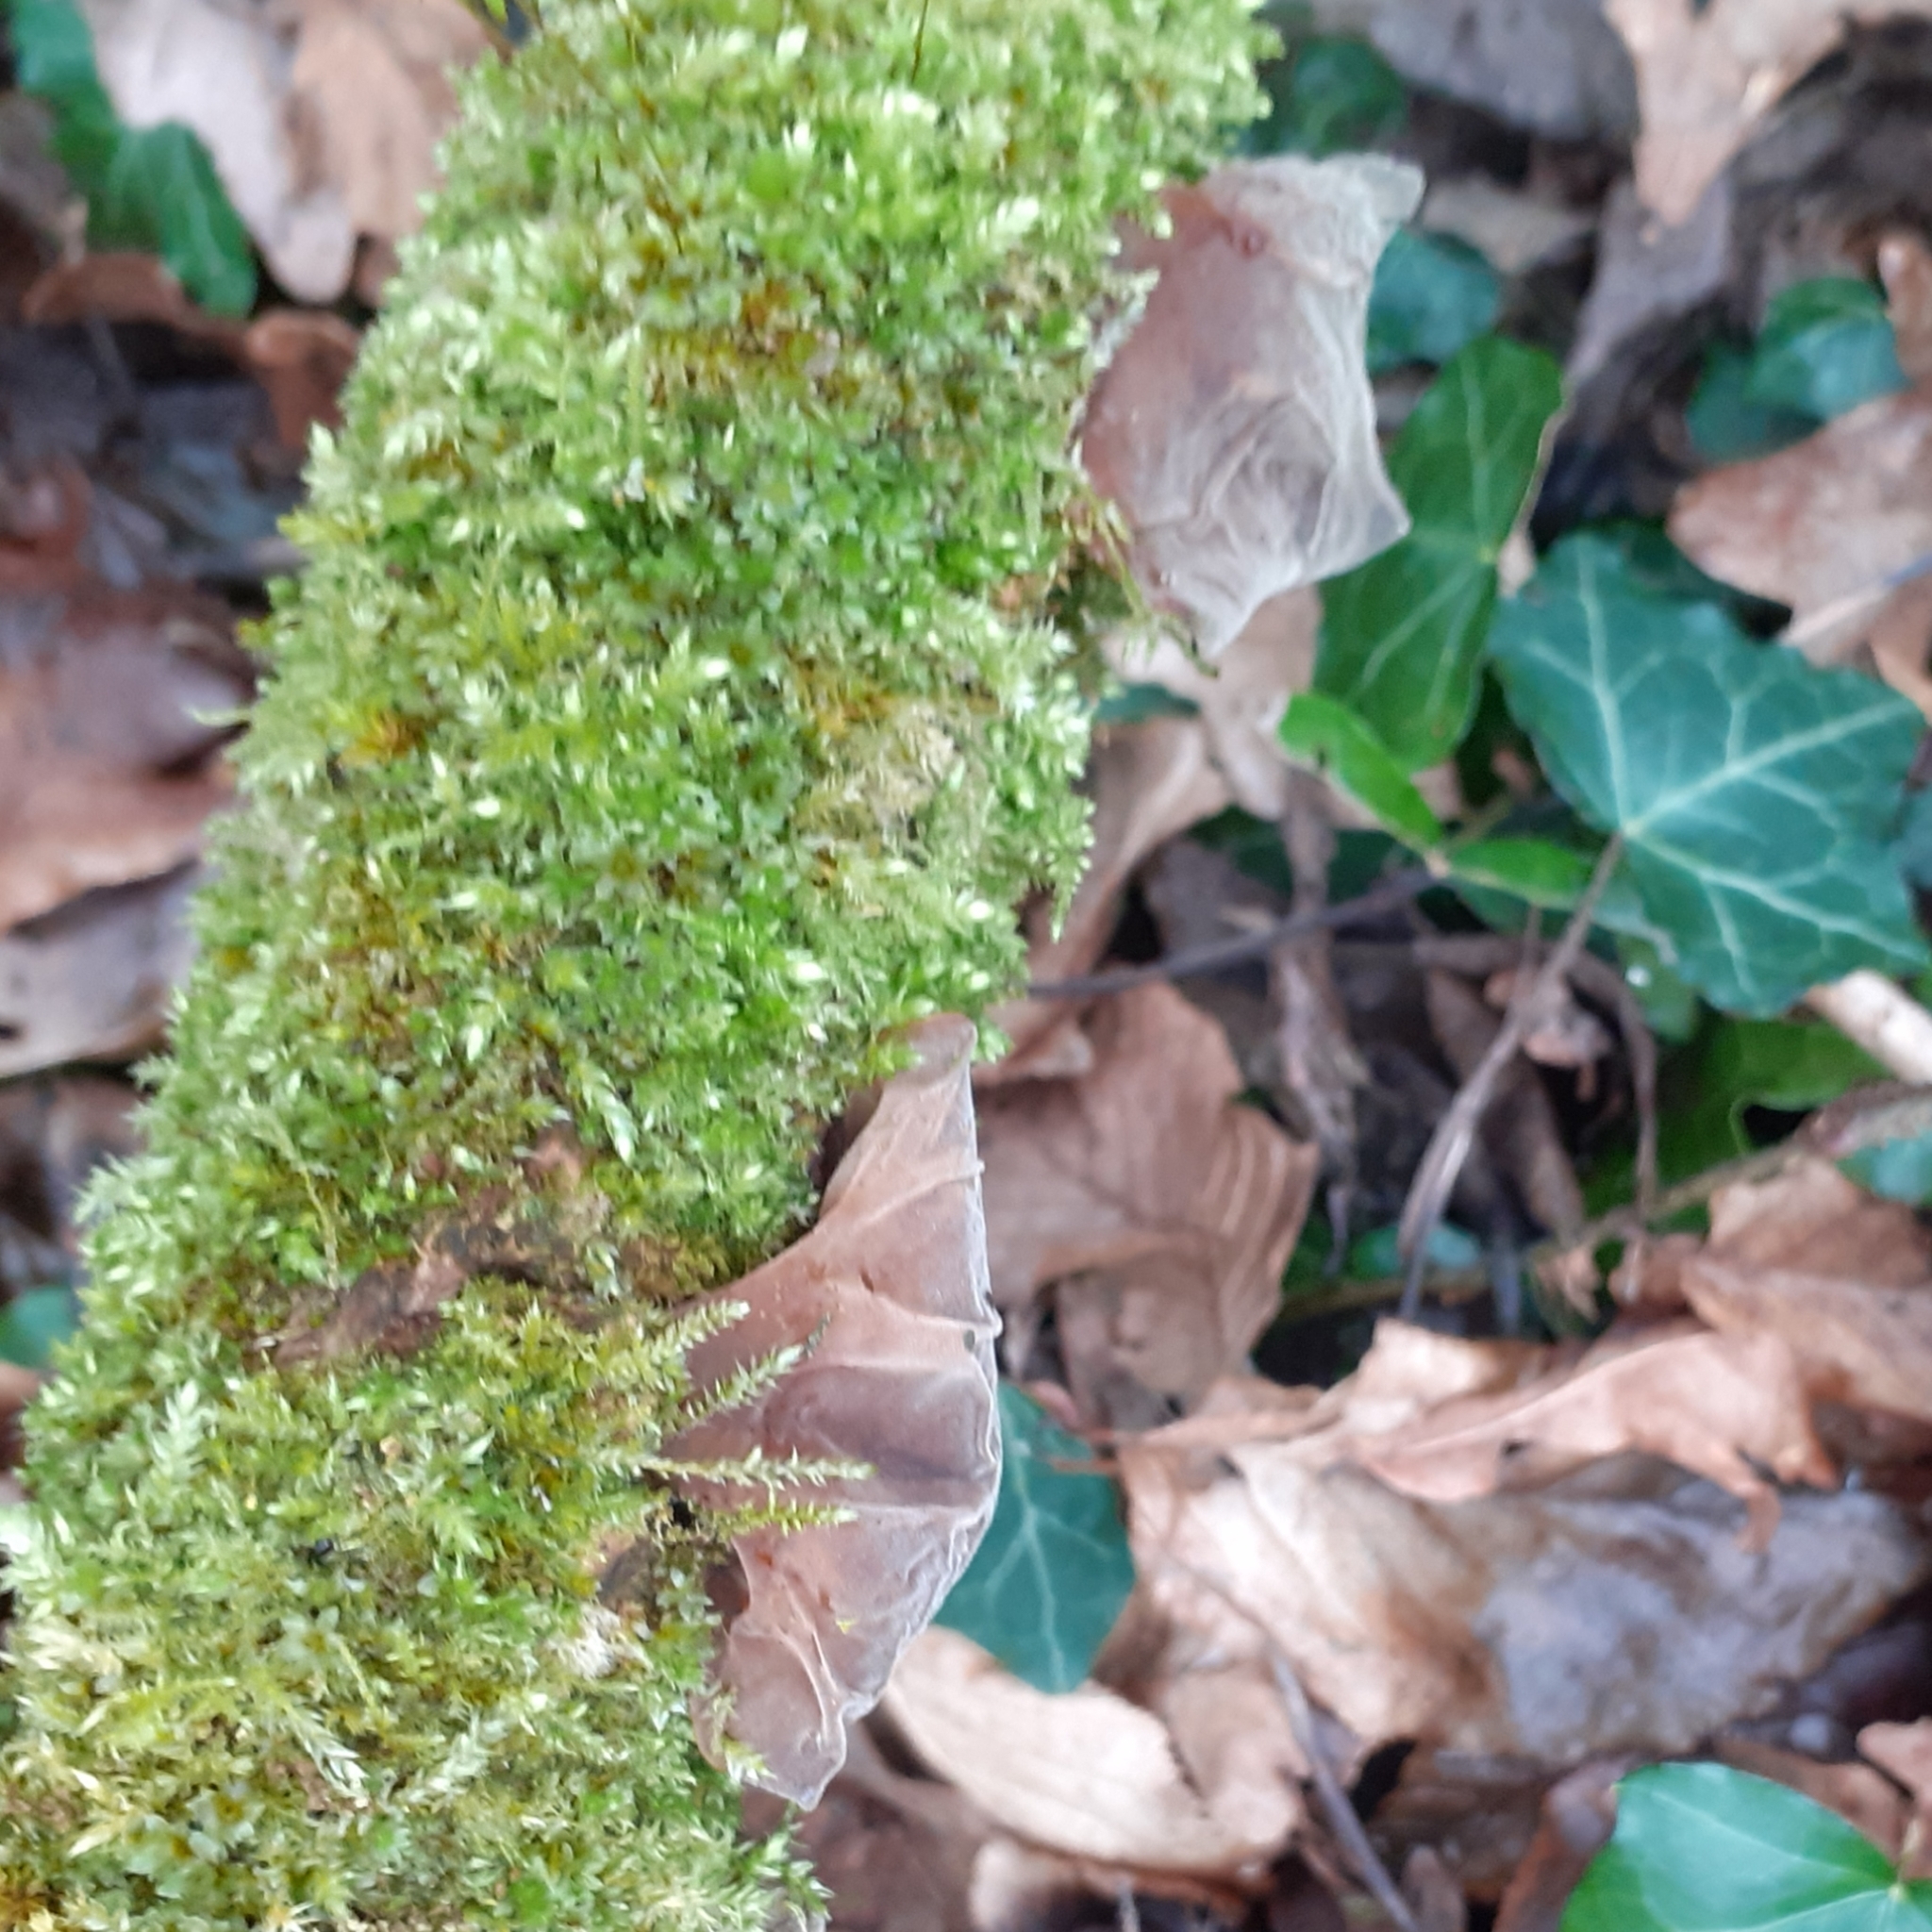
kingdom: Fungi
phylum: Basidiomycota
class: Agaricomycetes
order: Auriculariales
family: Auriculariaceae
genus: Auricularia
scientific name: Auricularia auricula-judae
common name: Jelly ear
